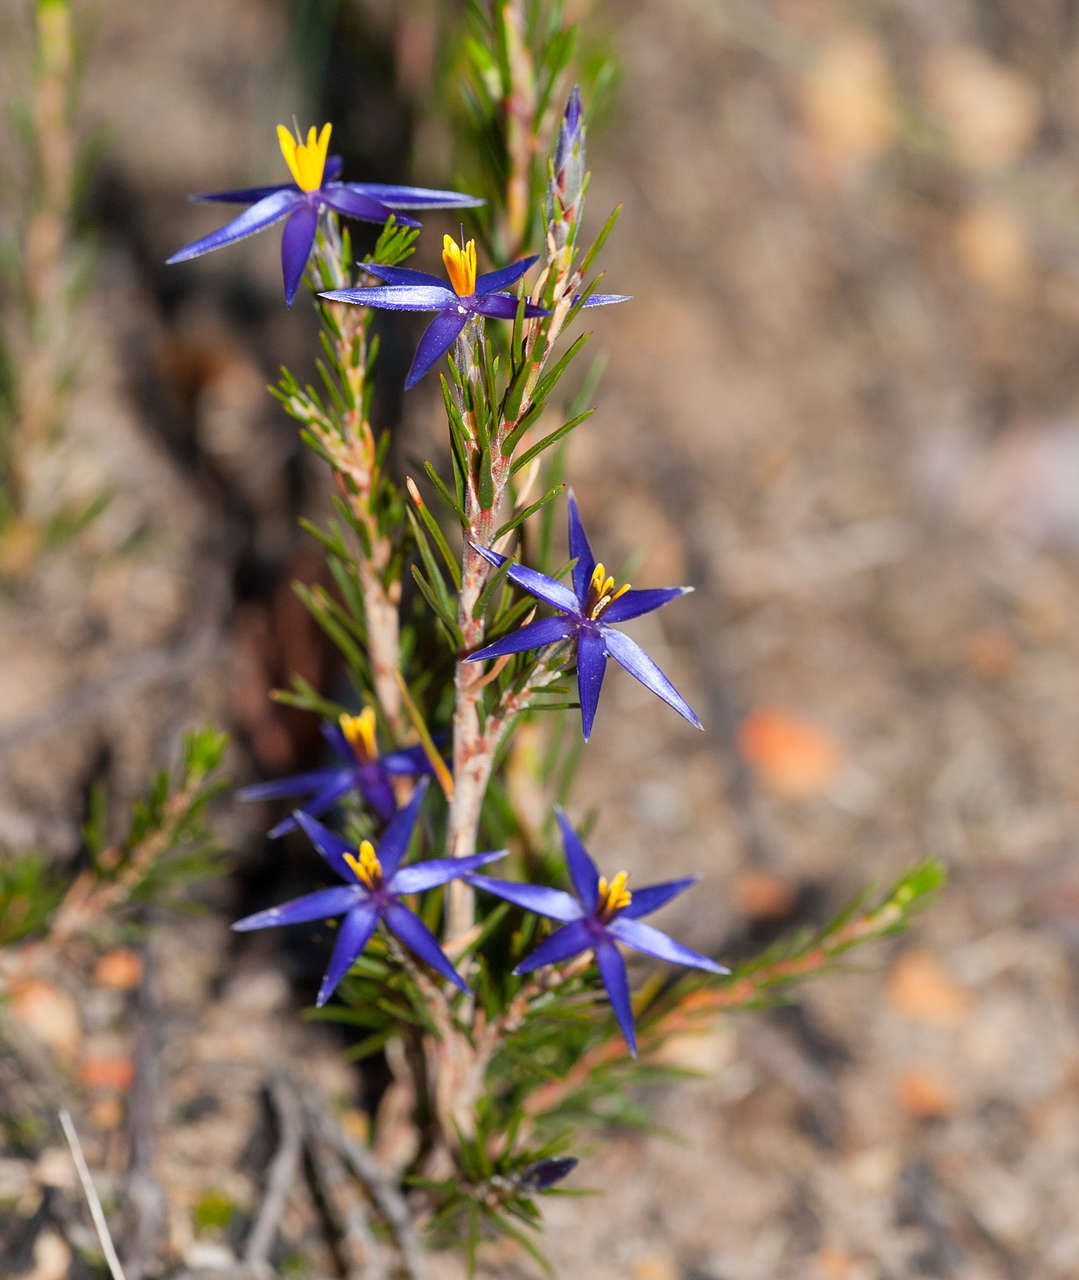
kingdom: Plantae
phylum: Tracheophyta
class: Liliopsida
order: Arecales
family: Dasypogonaceae
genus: Calectasia
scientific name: Calectasia intermedia
